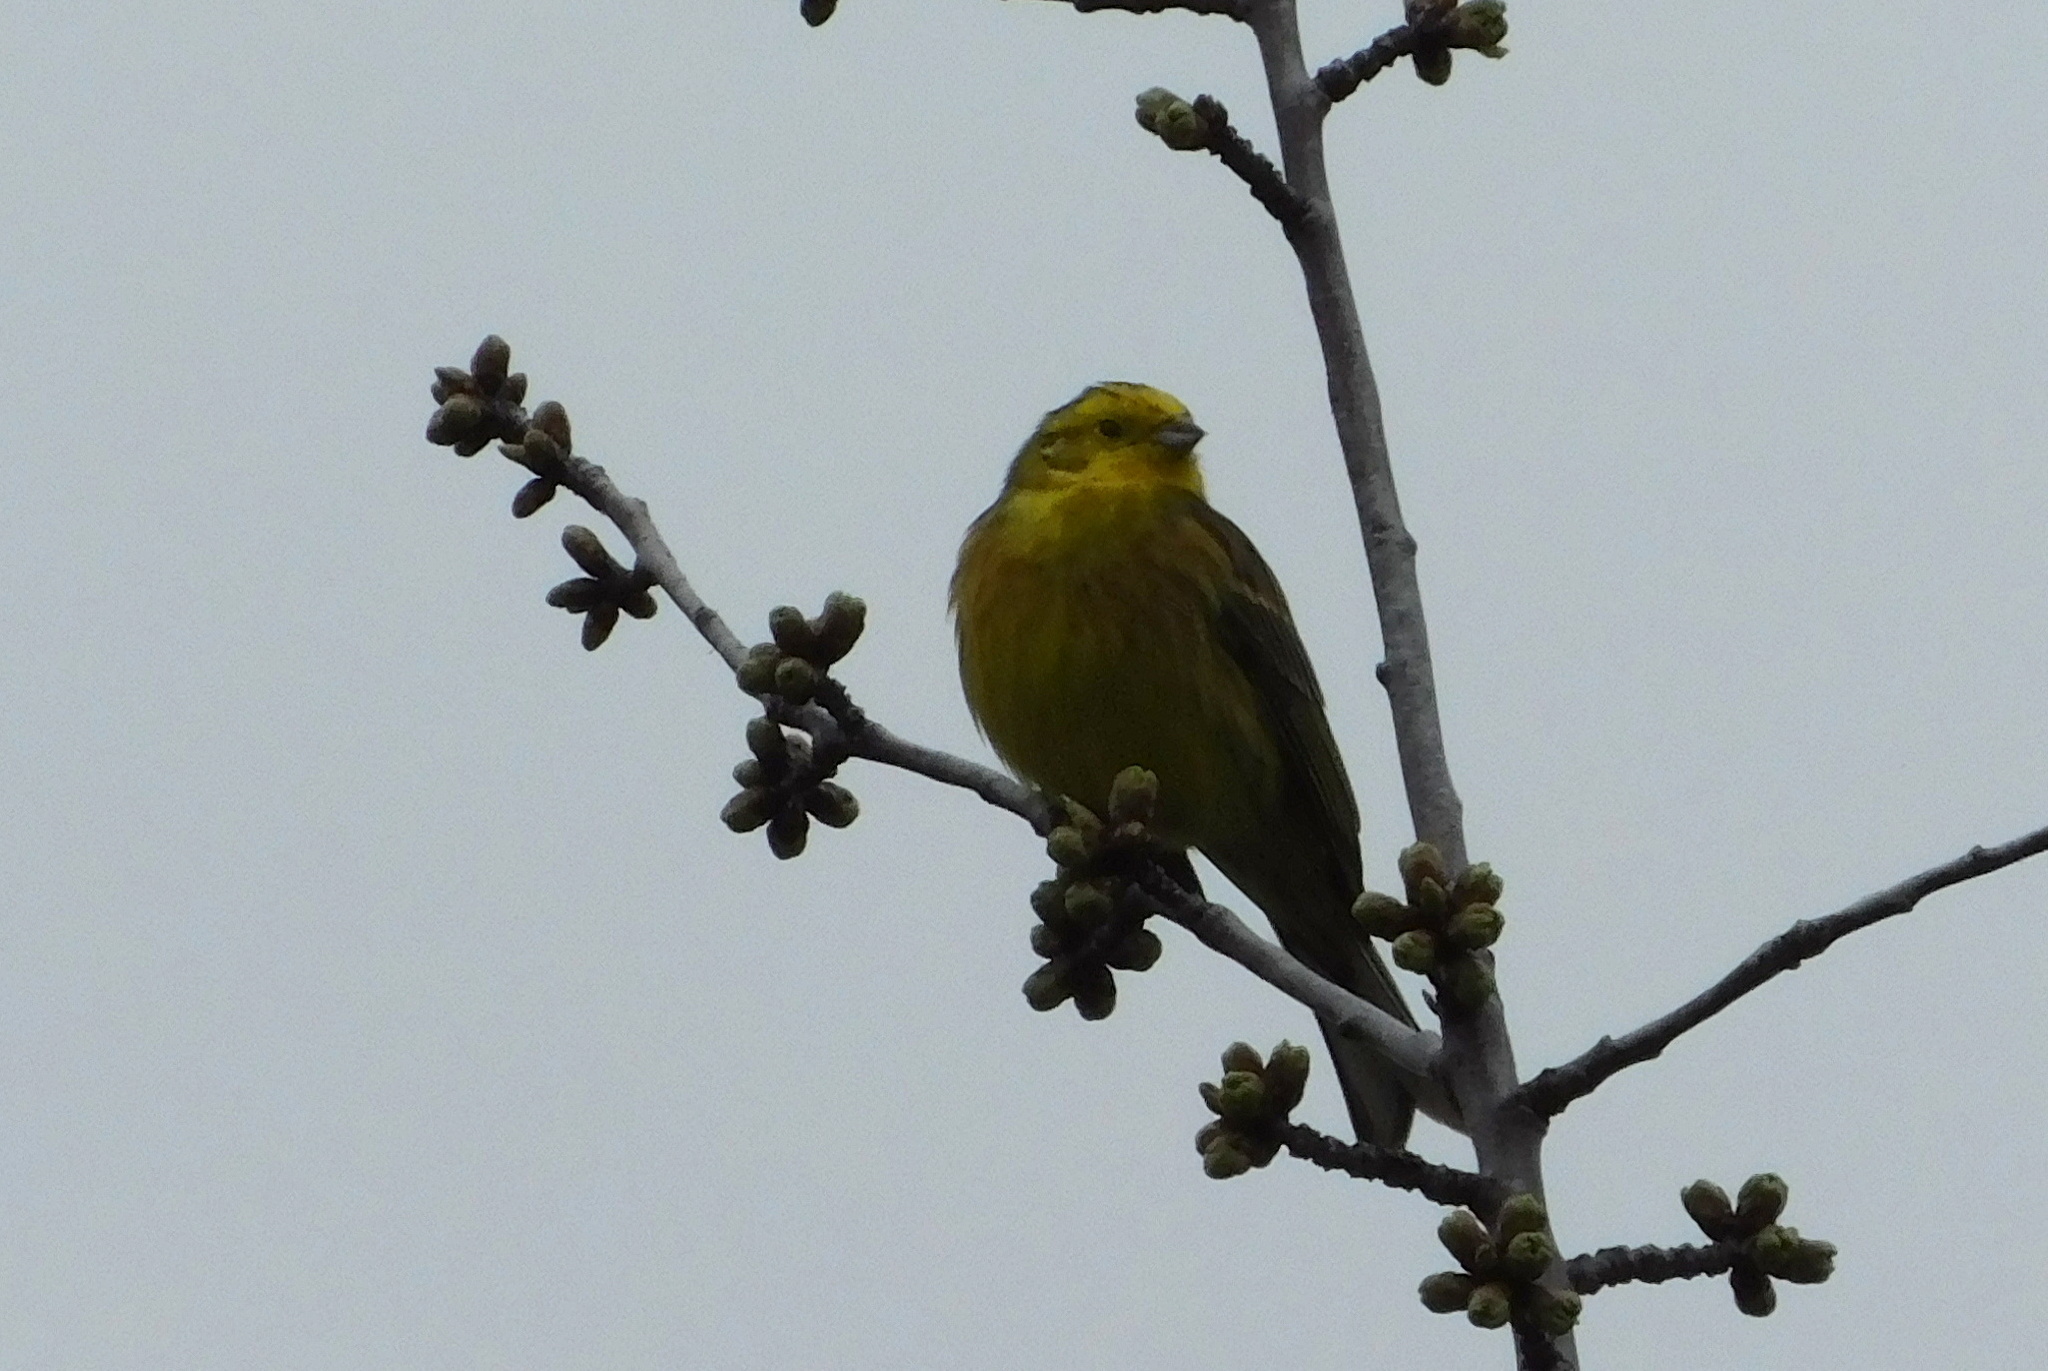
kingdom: Animalia
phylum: Chordata
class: Aves
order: Passeriformes
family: Emberizidae
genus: Emberiza
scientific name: Emberiza citrinella
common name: Yellowhammer
